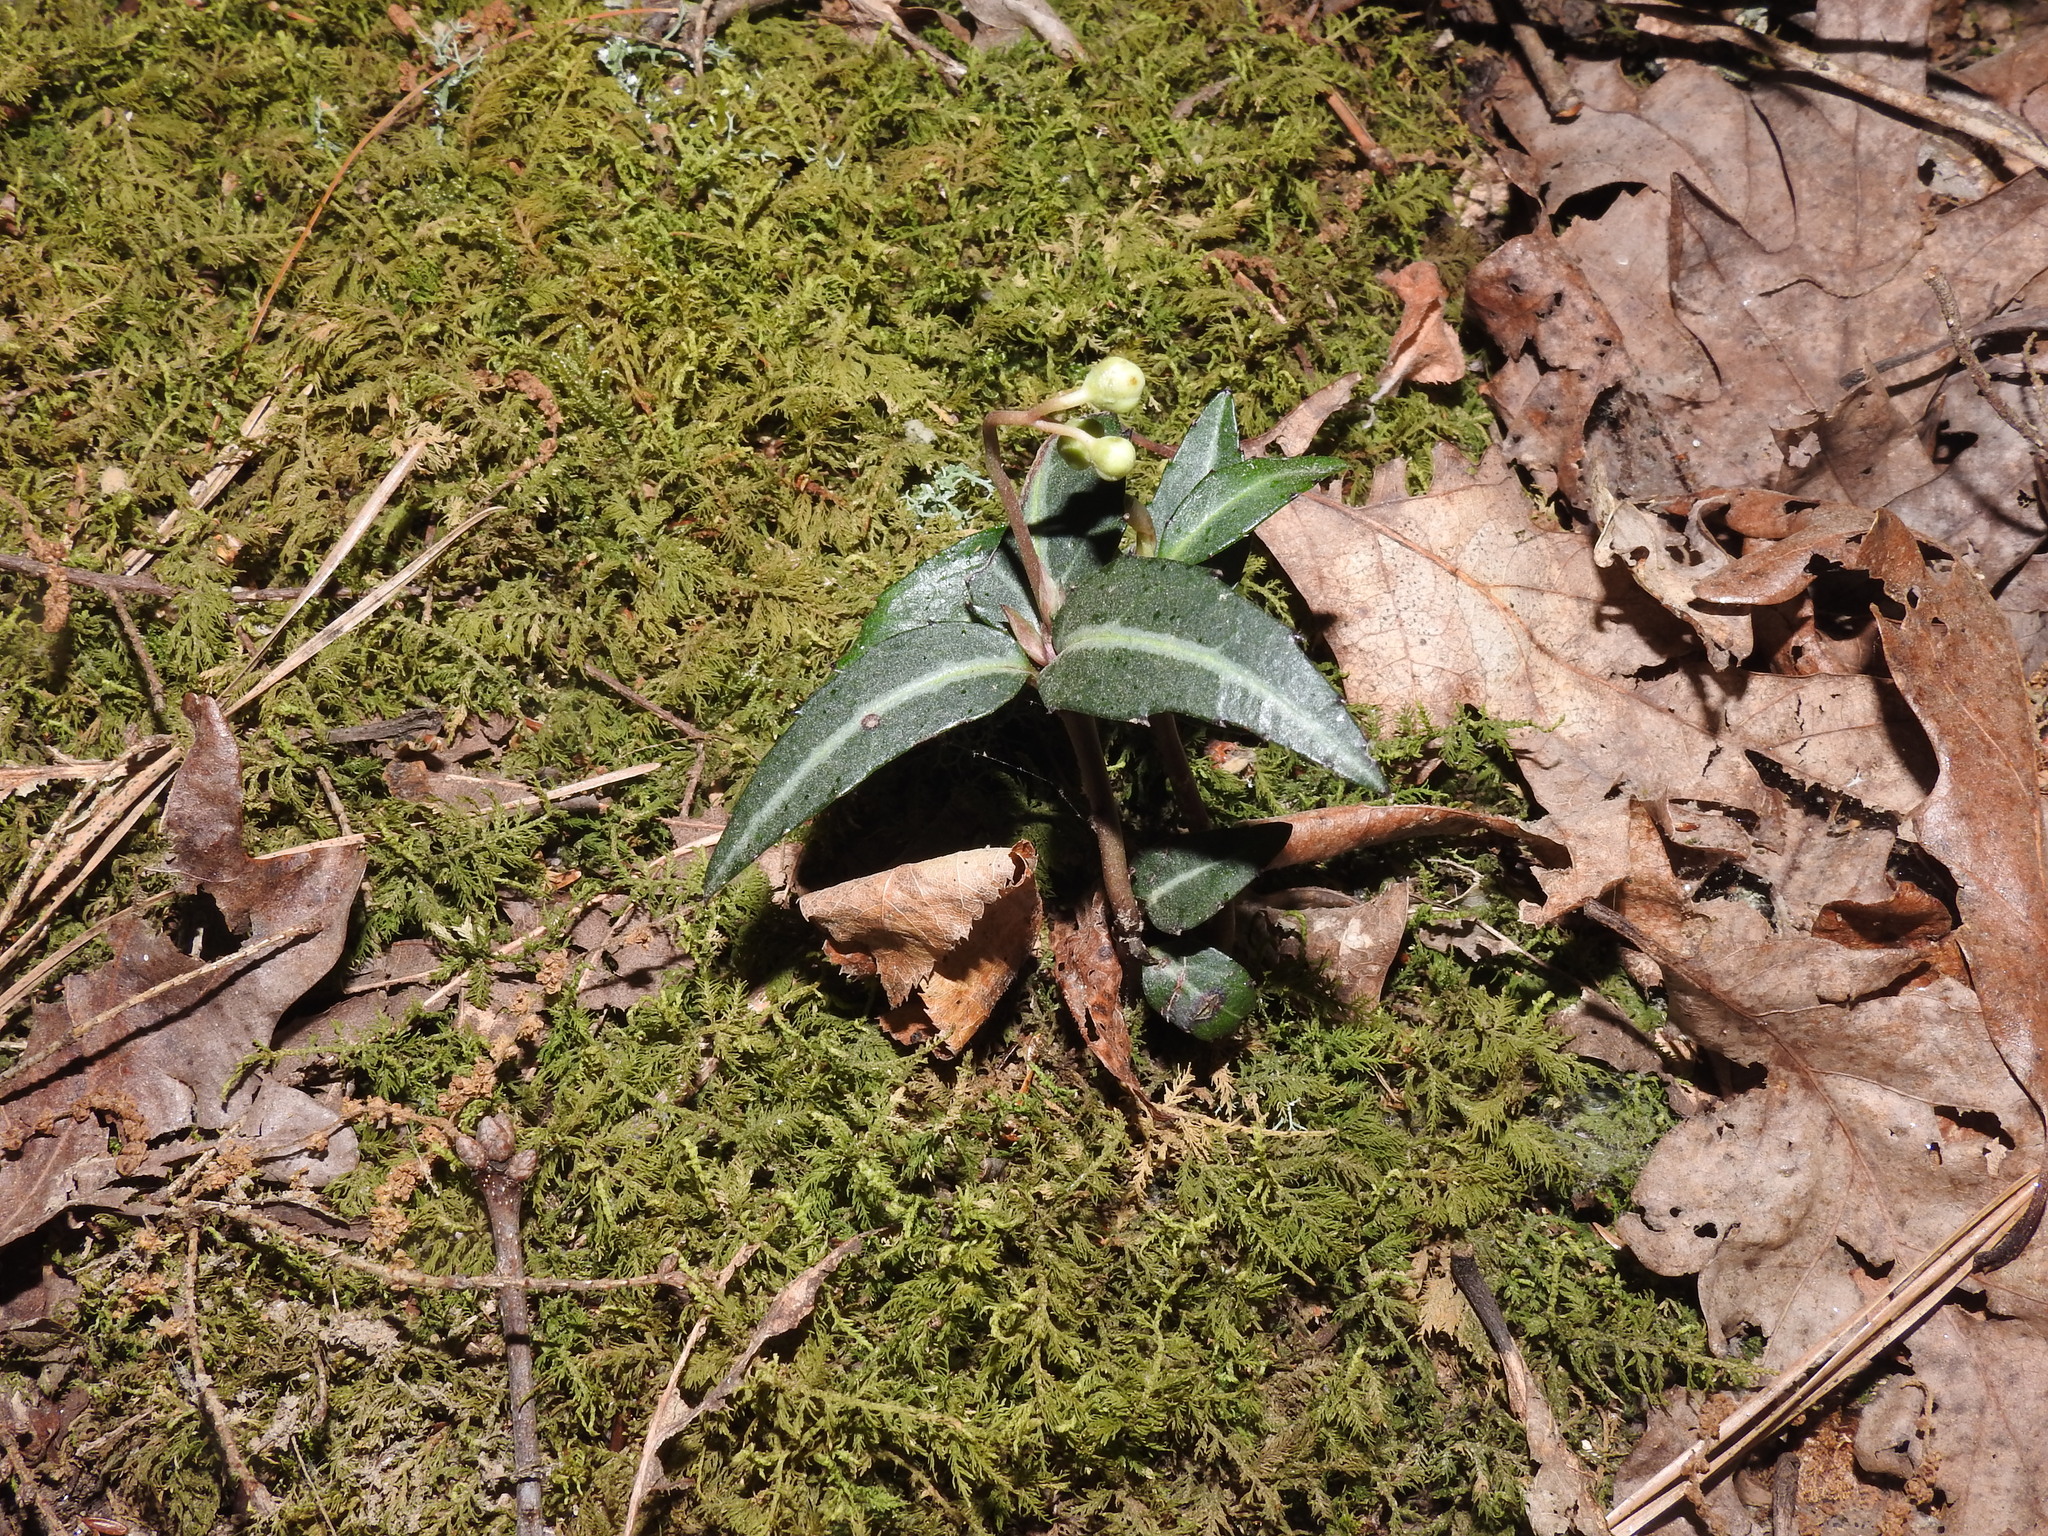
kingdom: Plantae
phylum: Tracheophyta
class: Magnoliopsida
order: Ericales
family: Ericaceae
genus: Chimaphila
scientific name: Chimaphila maculata
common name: Spotted pipsissewa
